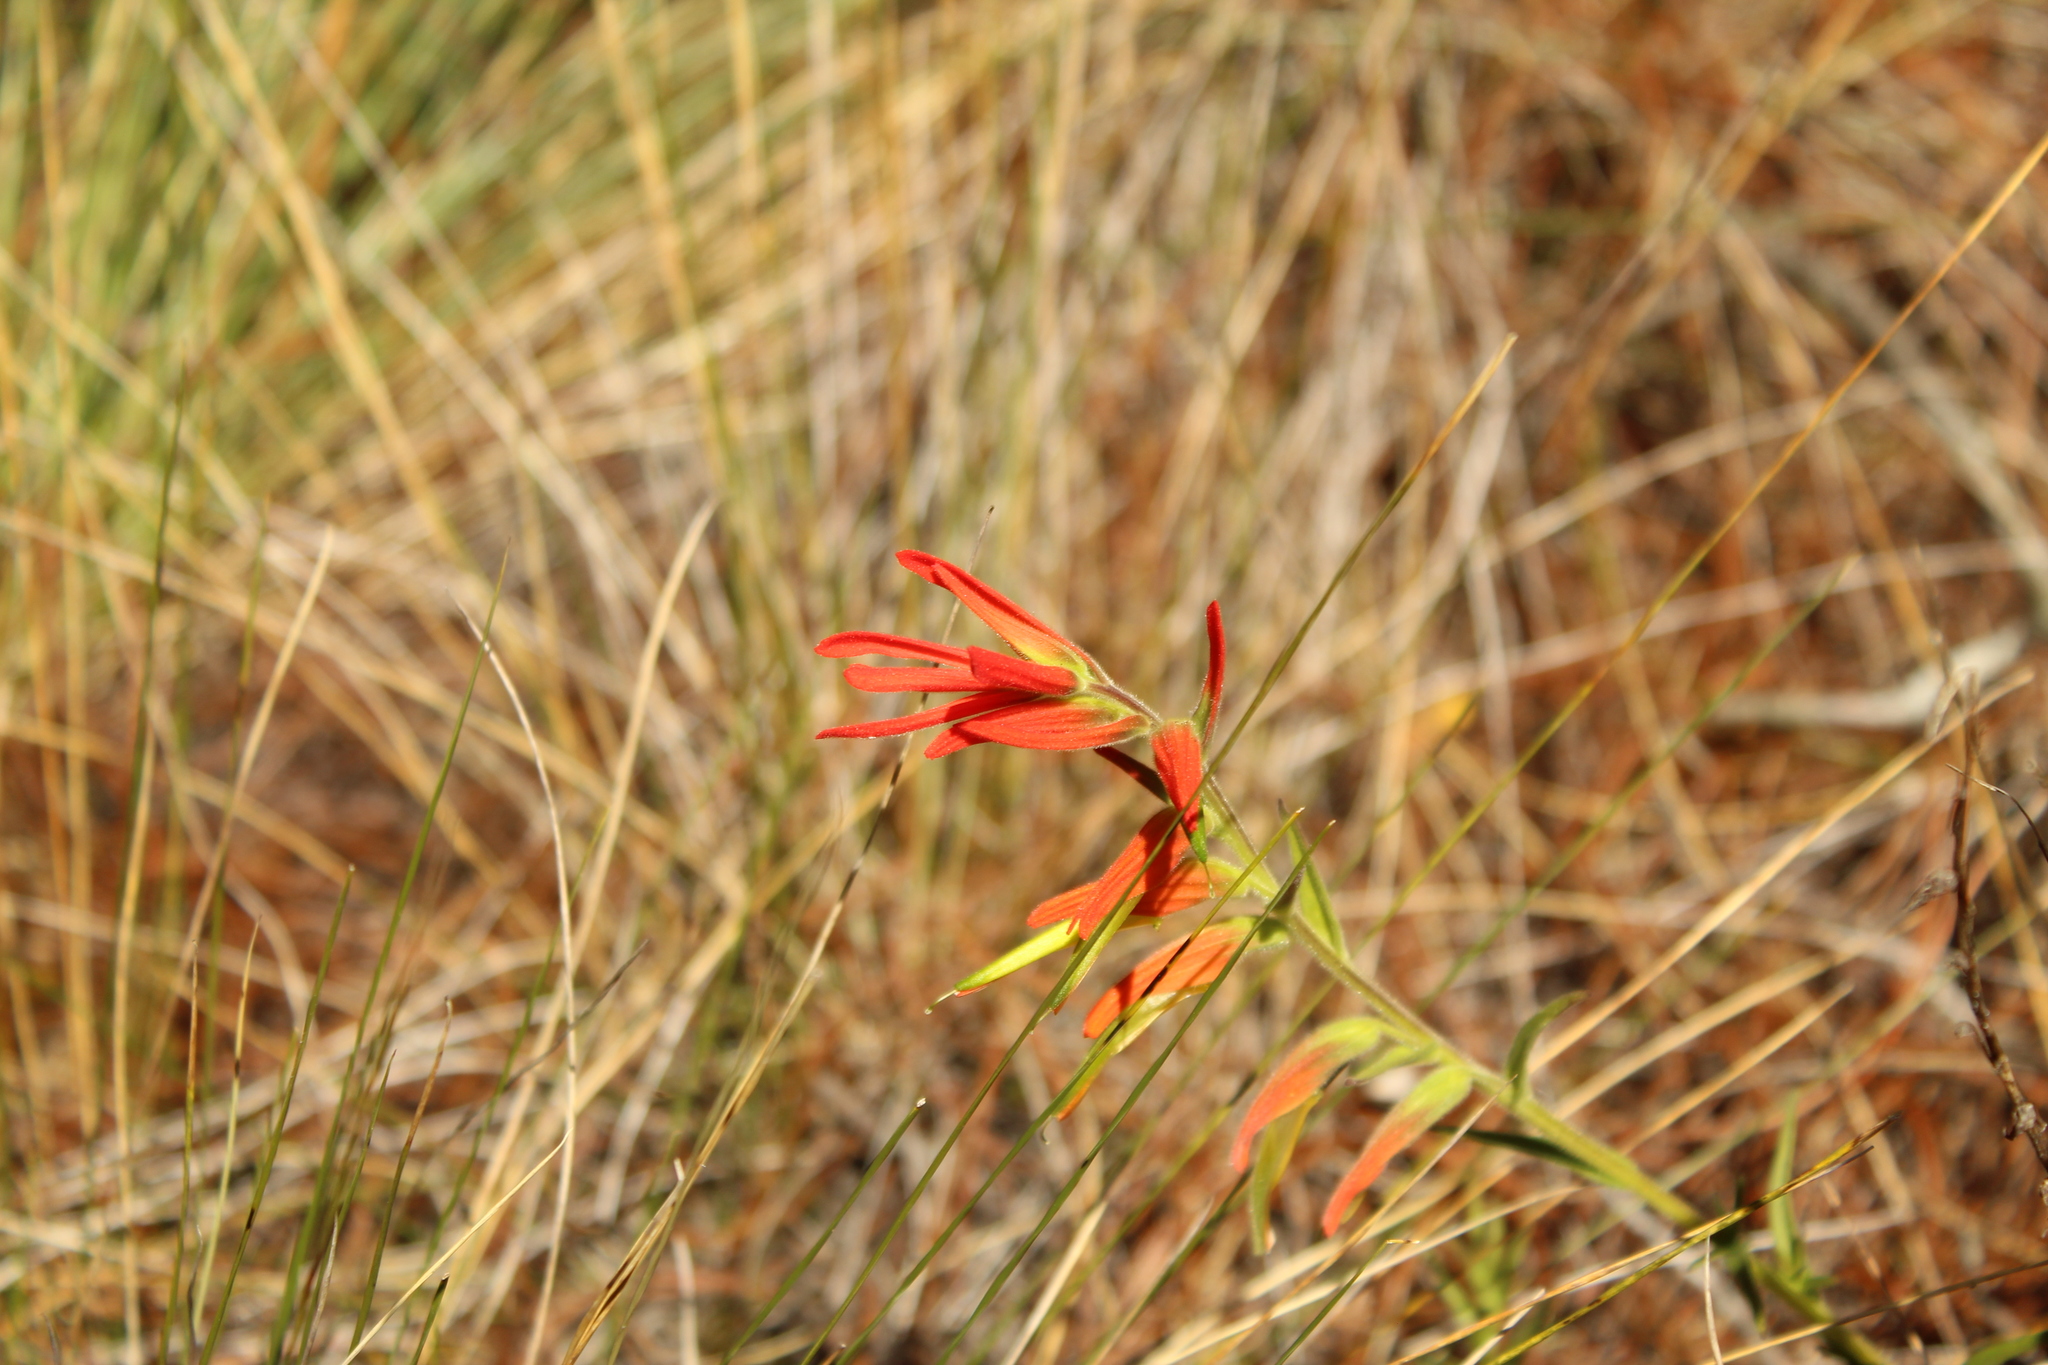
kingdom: Plantae
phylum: Tracheophyta
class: Magnoliopsida
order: Lamiales
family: Orobanchaceae
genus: Castilleja
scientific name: Castilleja integrifolia
